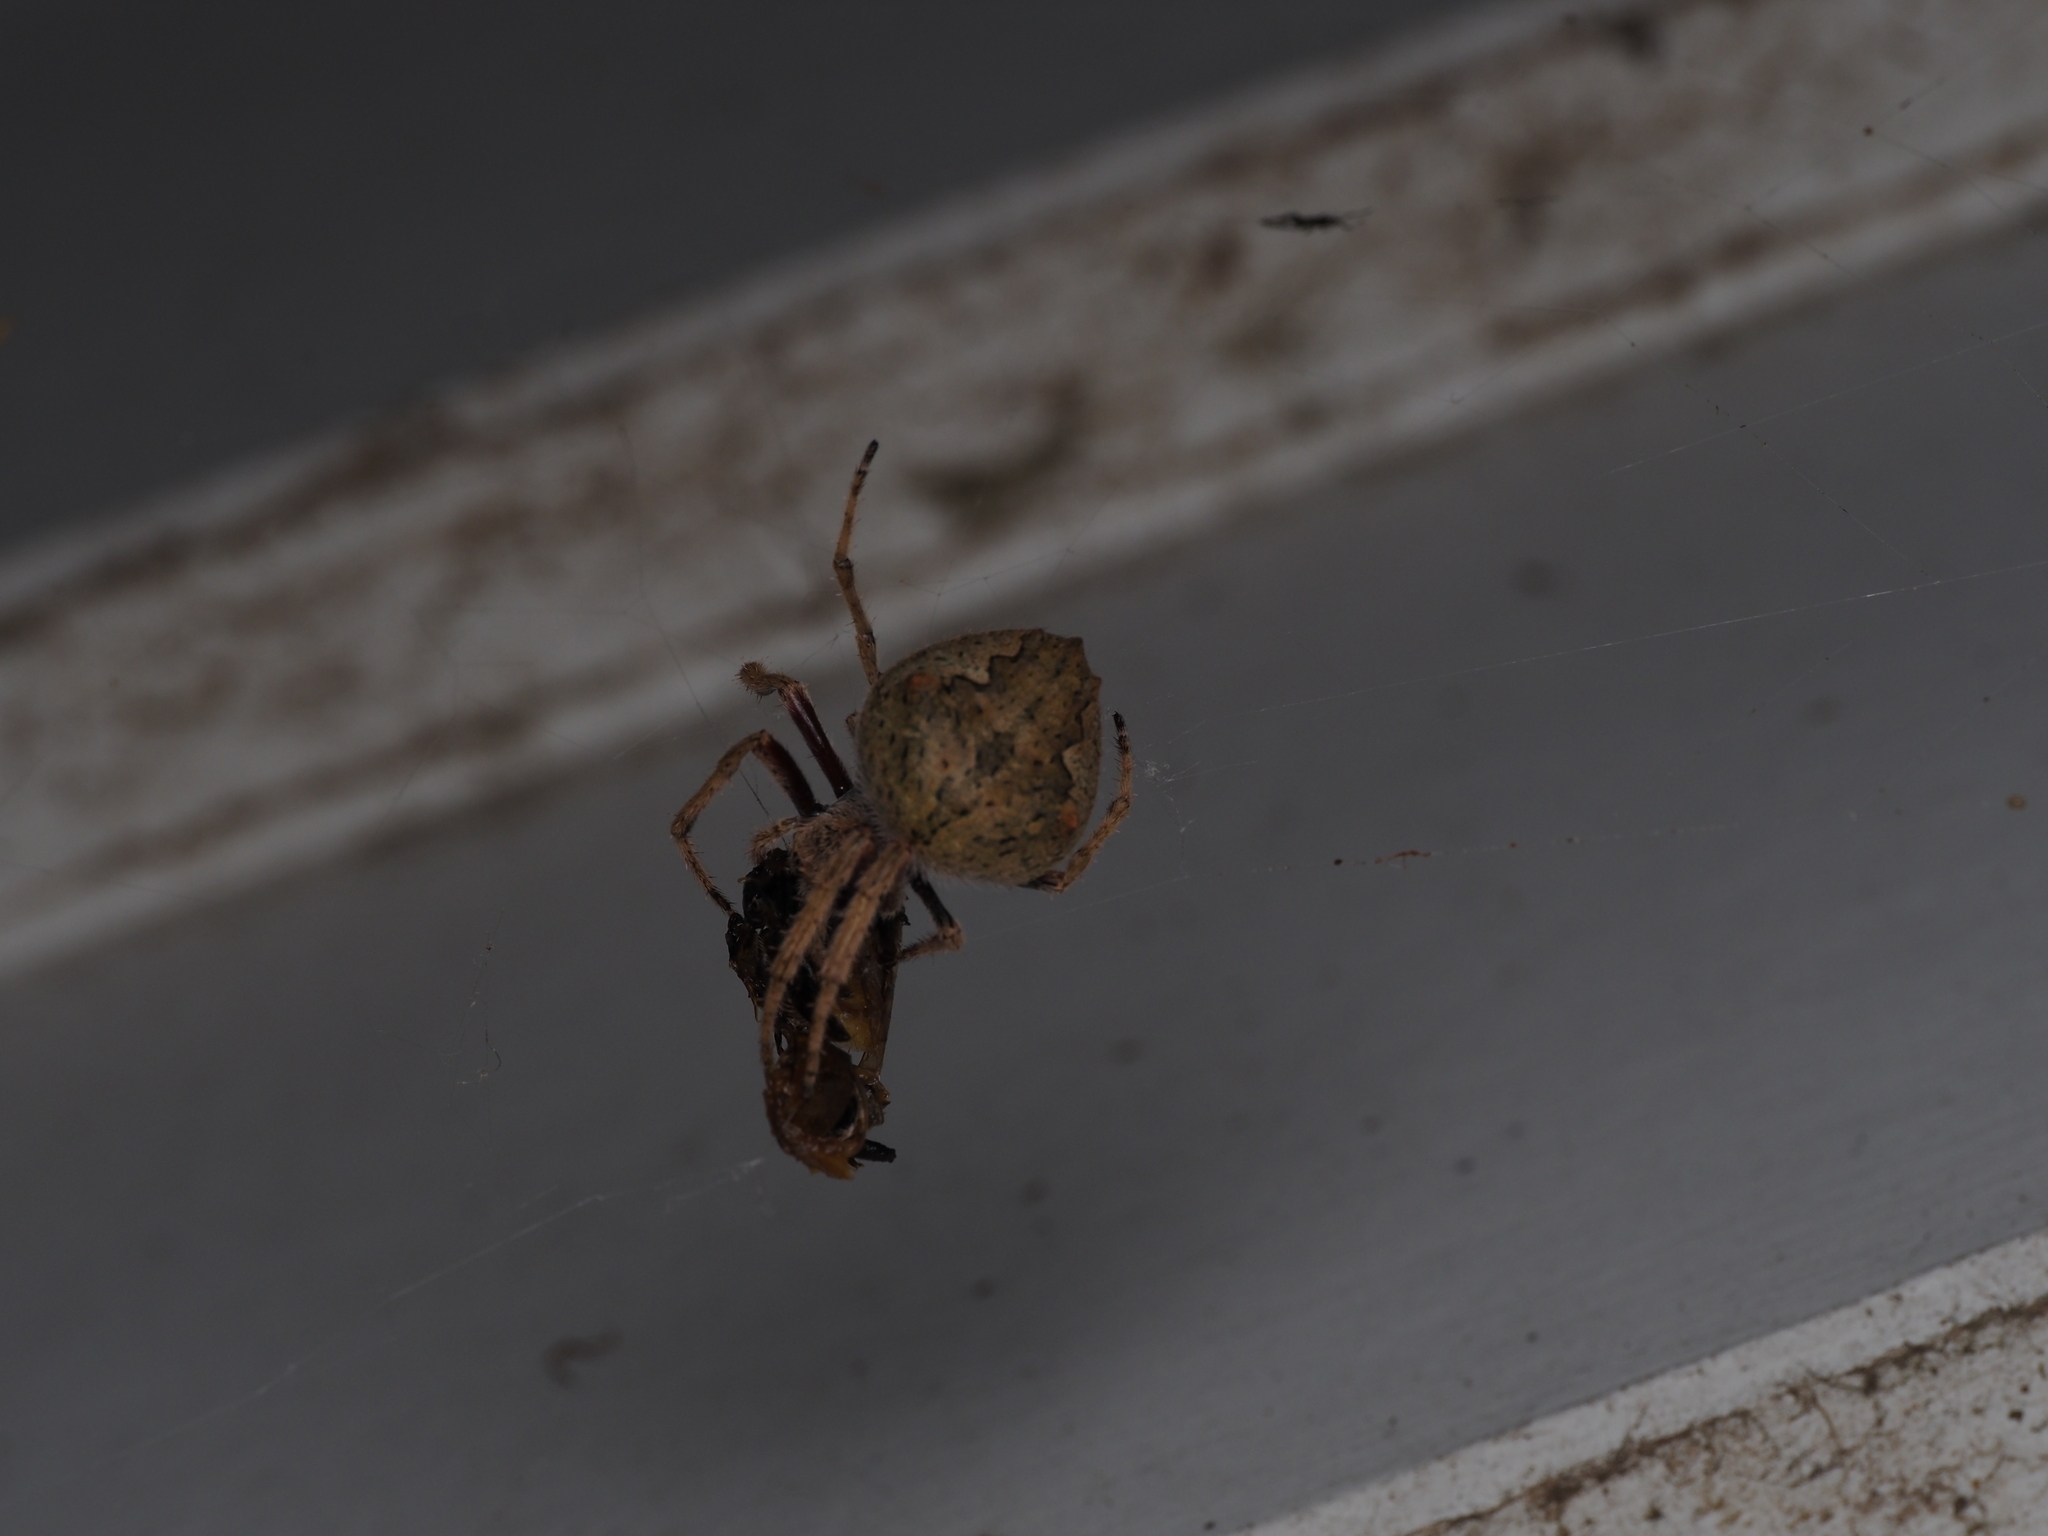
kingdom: Animalia
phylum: Arthropoda
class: Arachnida
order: Araneae
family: Araneidae
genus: Eriophora
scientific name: Eriophora pustulosa
